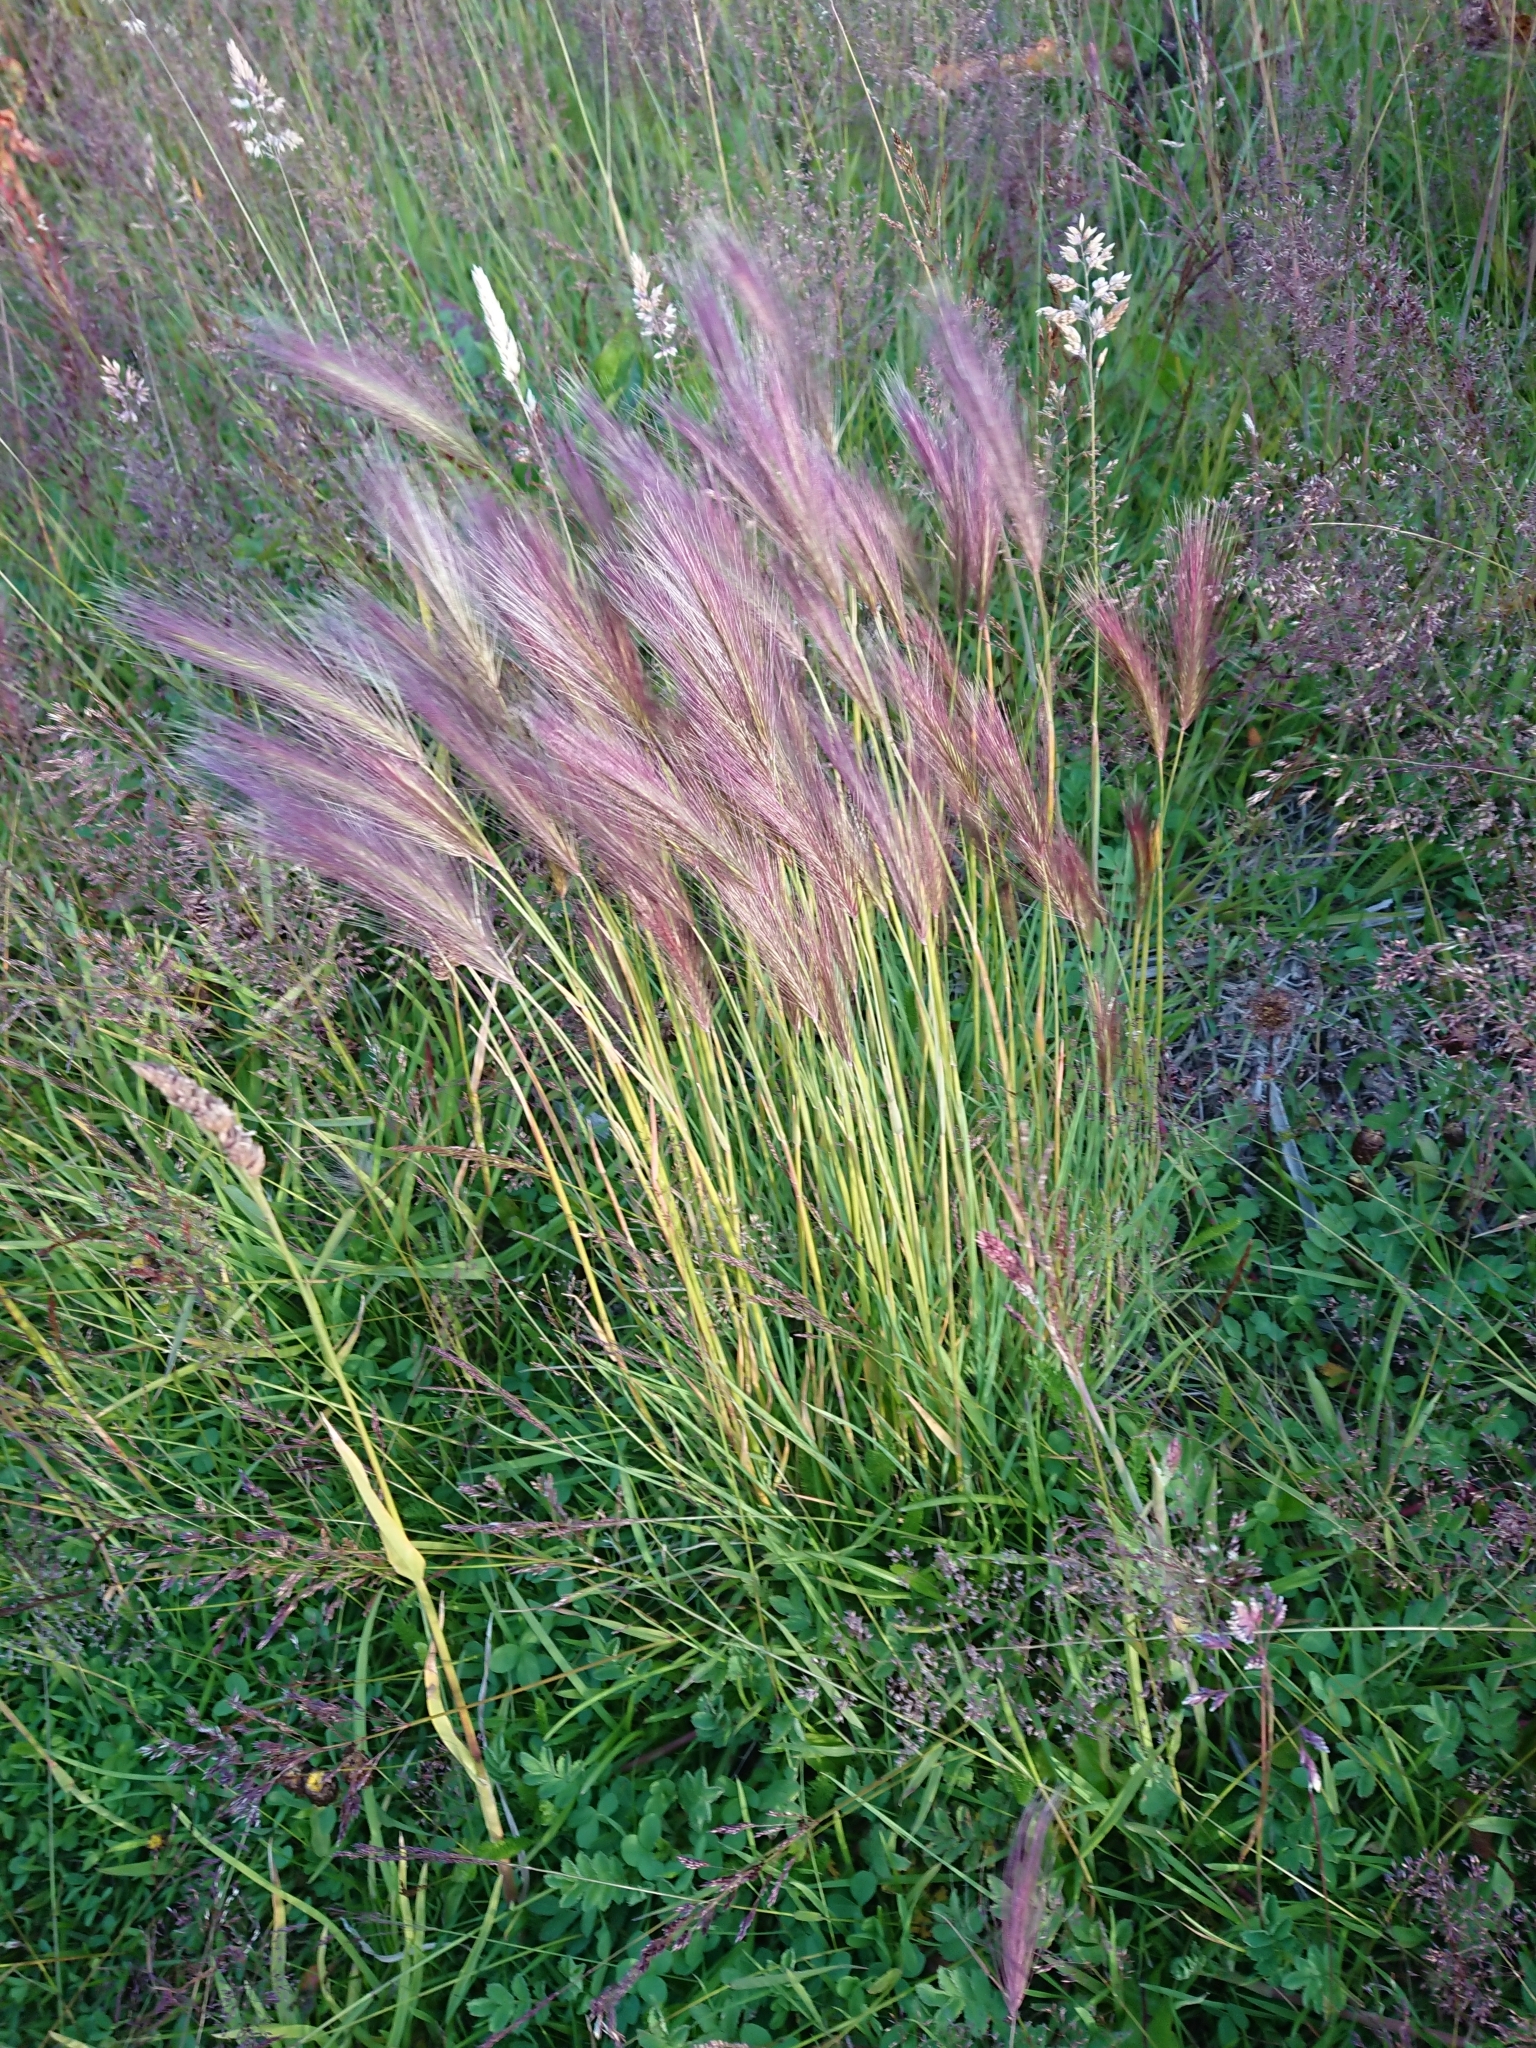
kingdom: Plantae
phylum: Tracheophyta
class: Liliopsida
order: Poales
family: Poaceae
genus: Hordeum
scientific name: Hordeum jubatum
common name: Foxtail barley
